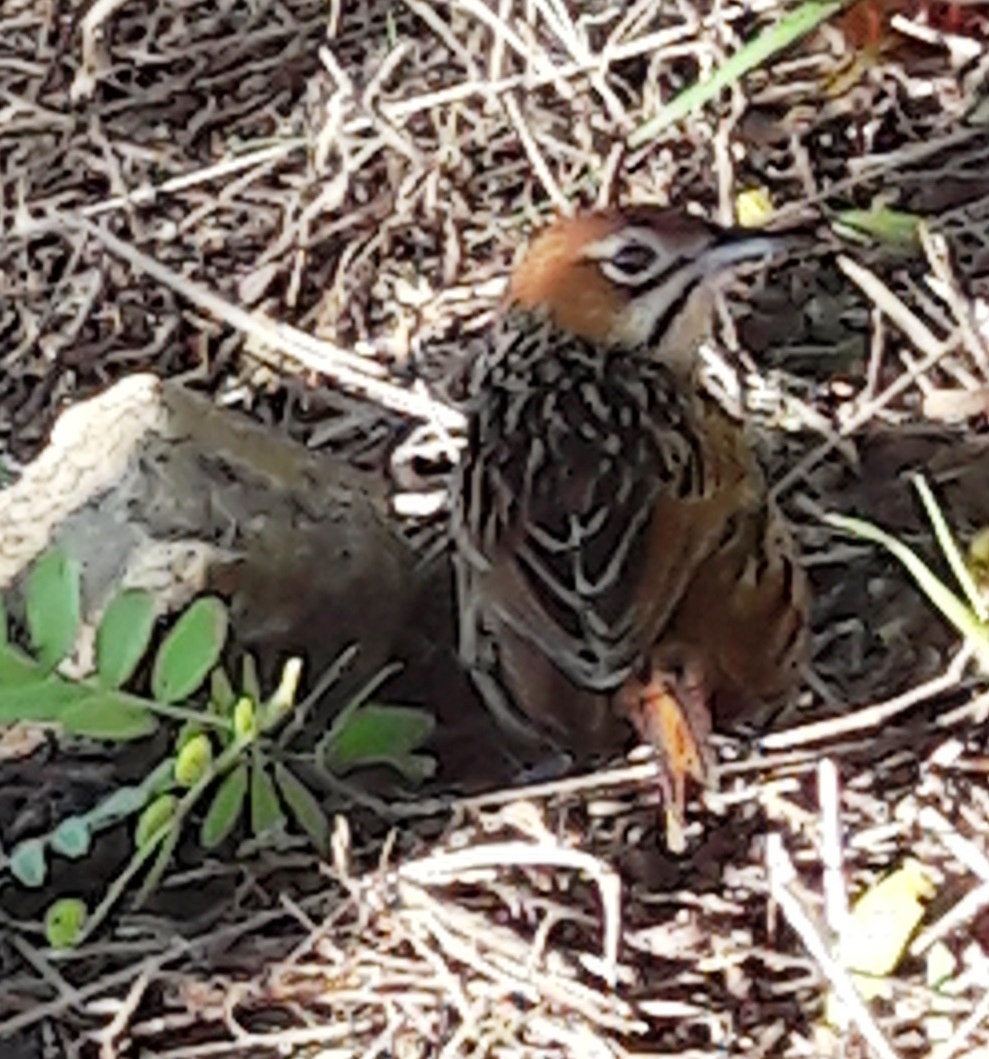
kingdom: Animalia
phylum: Chordata
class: Aves
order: Passeriformes
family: Macrosphenidae
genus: Sphenoeacus
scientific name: Sphenoeacus afer
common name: Cape grassbird
